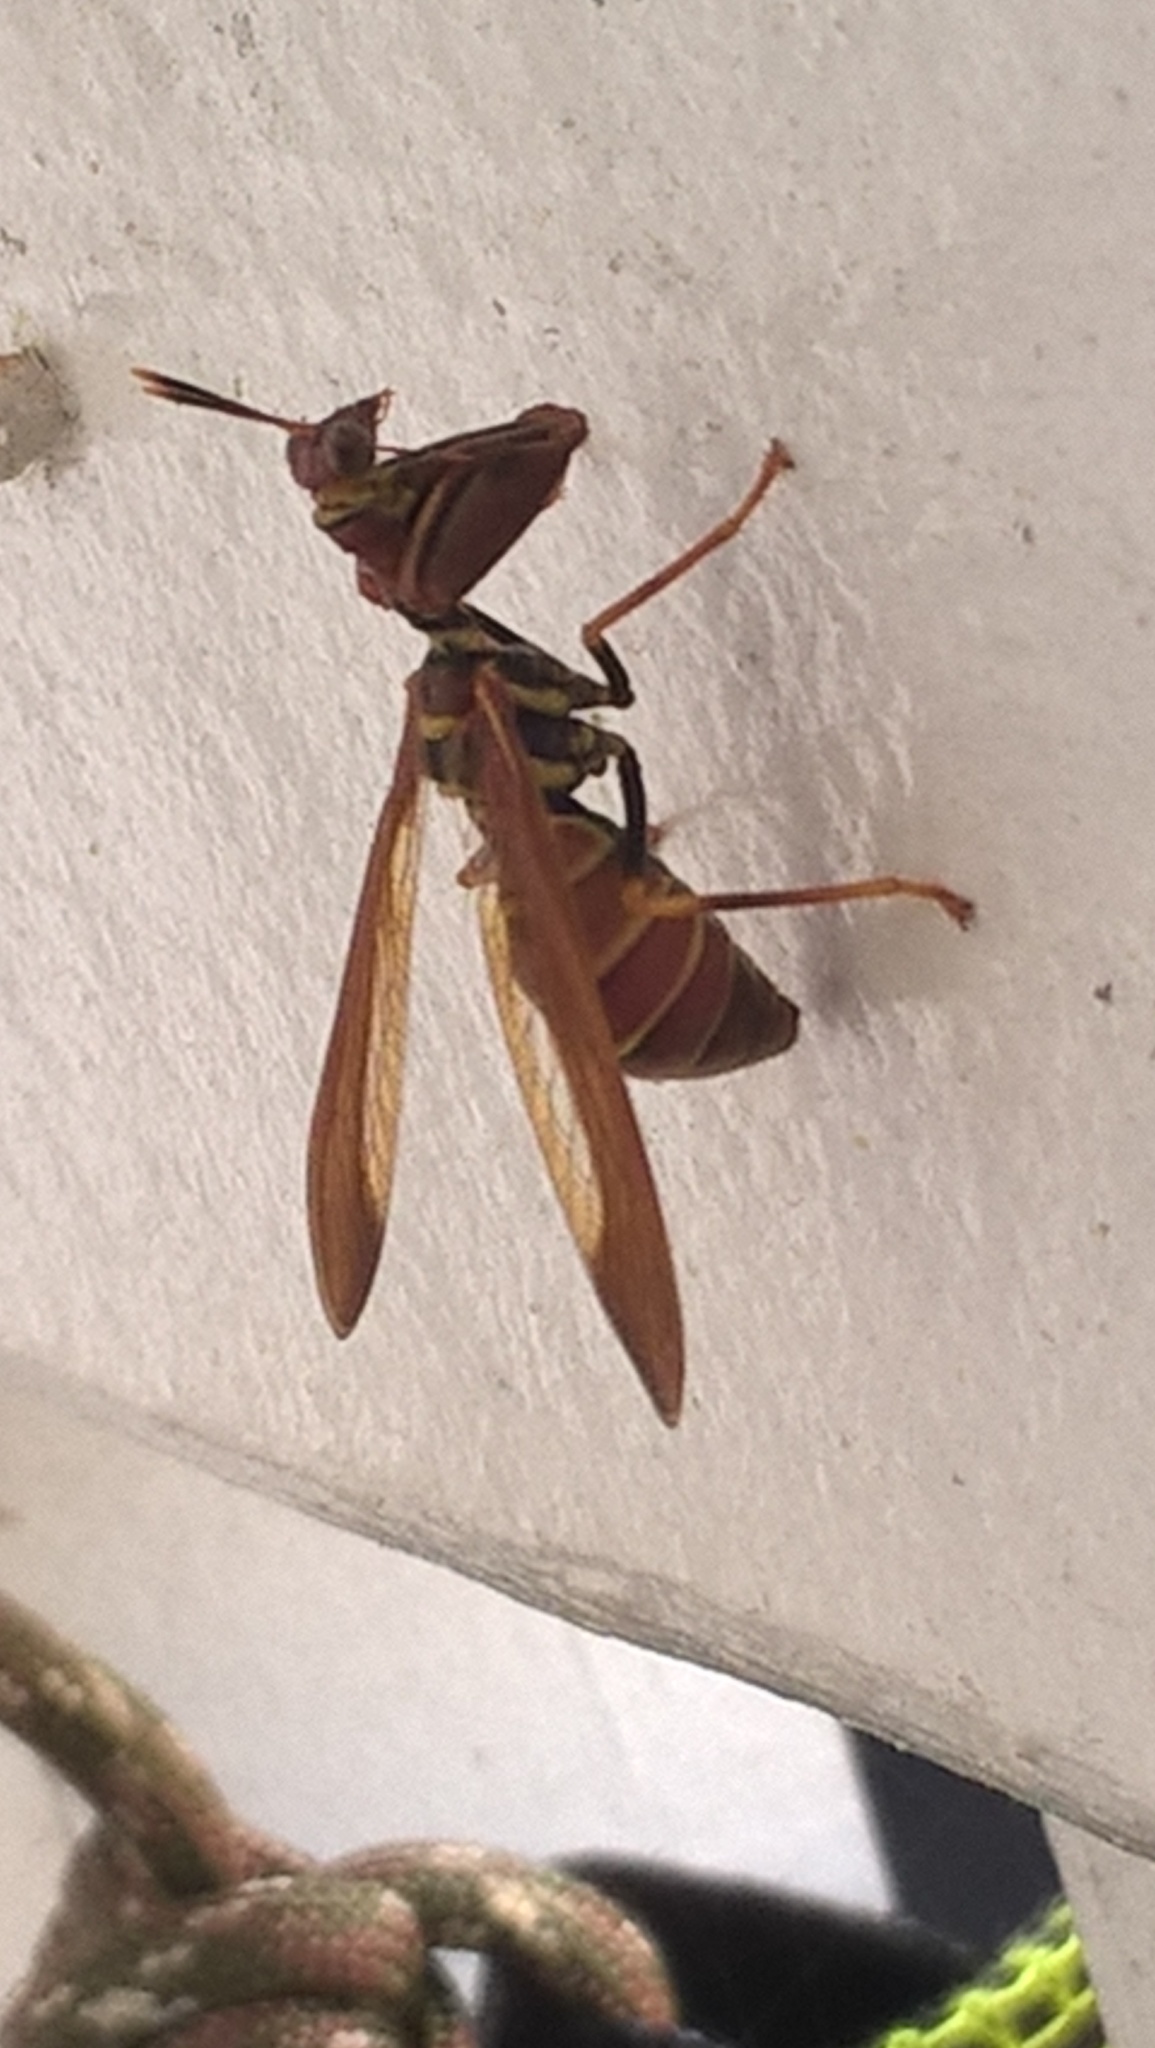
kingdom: Animalia
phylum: Arthropoda
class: Insecta
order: Neuroptera
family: Mantispidae
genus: Climaciella
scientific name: Climaciella brunnea
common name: Brown wasp mantidfly
